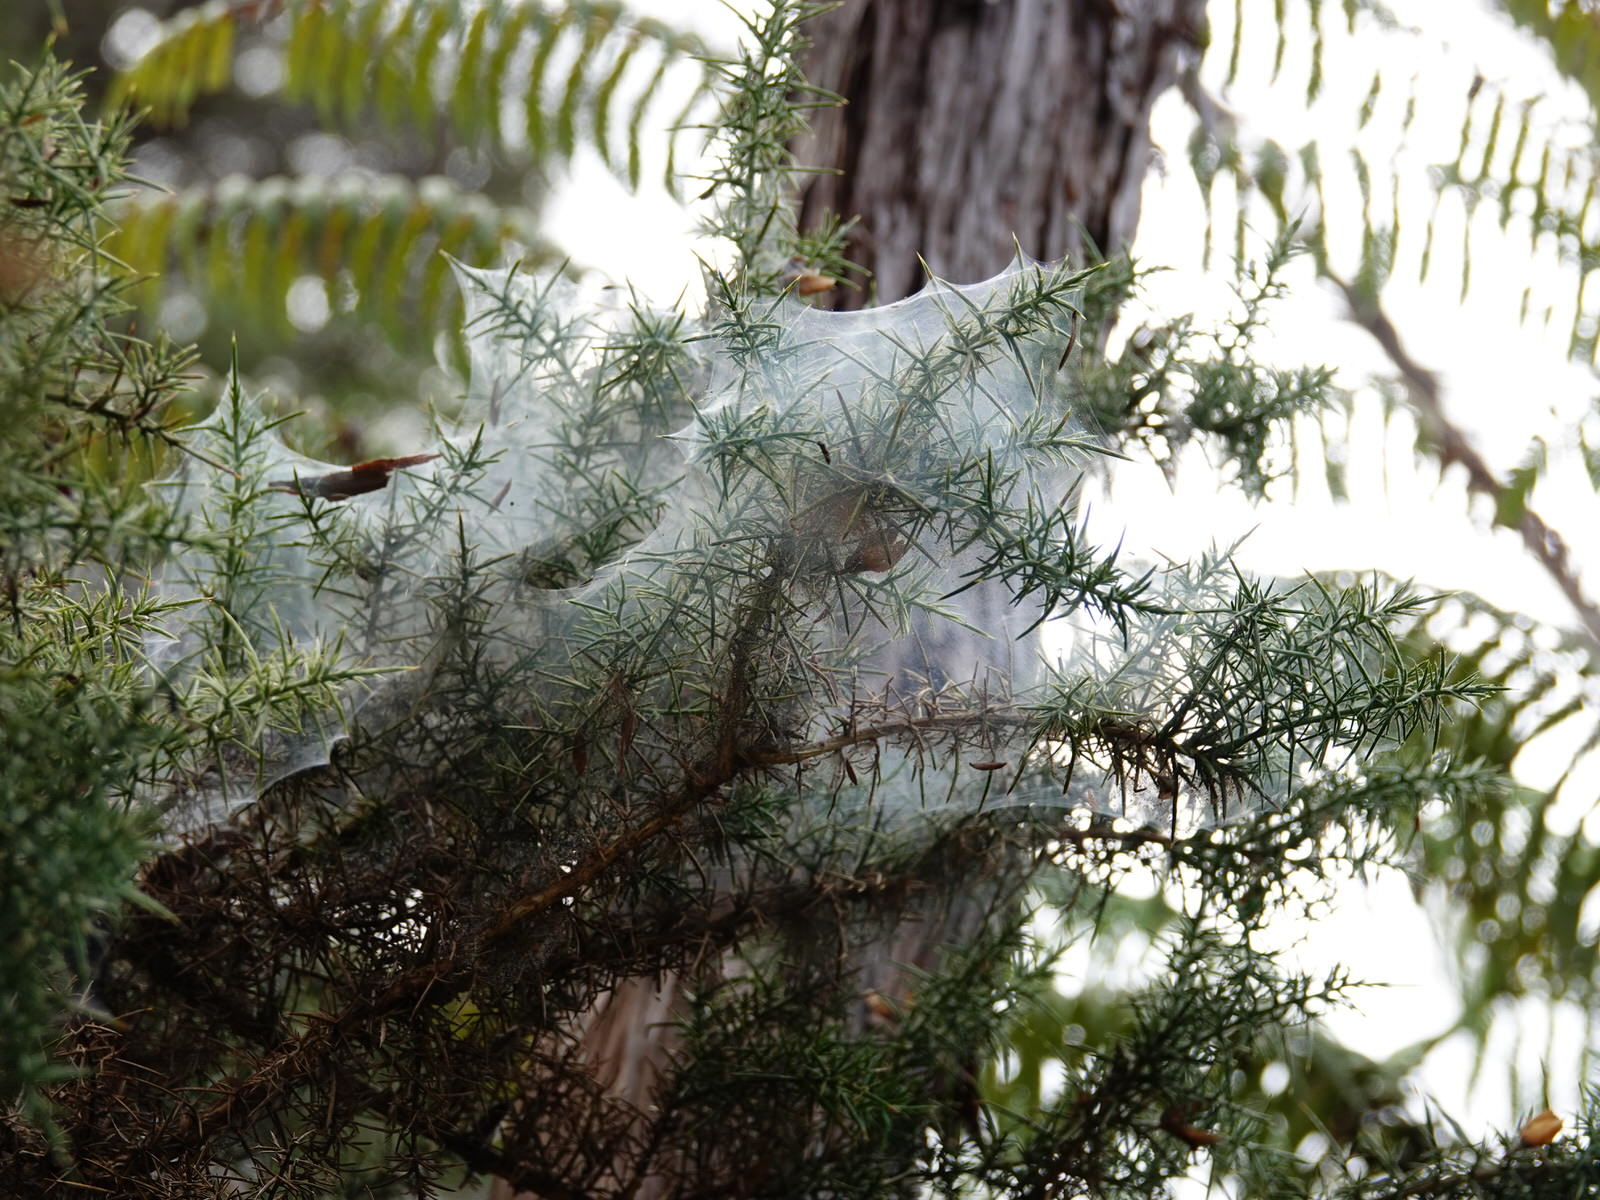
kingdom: Animalia
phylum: Arthropoda
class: Arachnida
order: Trombidiformes
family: Tetranychidae
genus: Tetranychus
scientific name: Tetranychus lintearius
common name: Gorse spider mite
